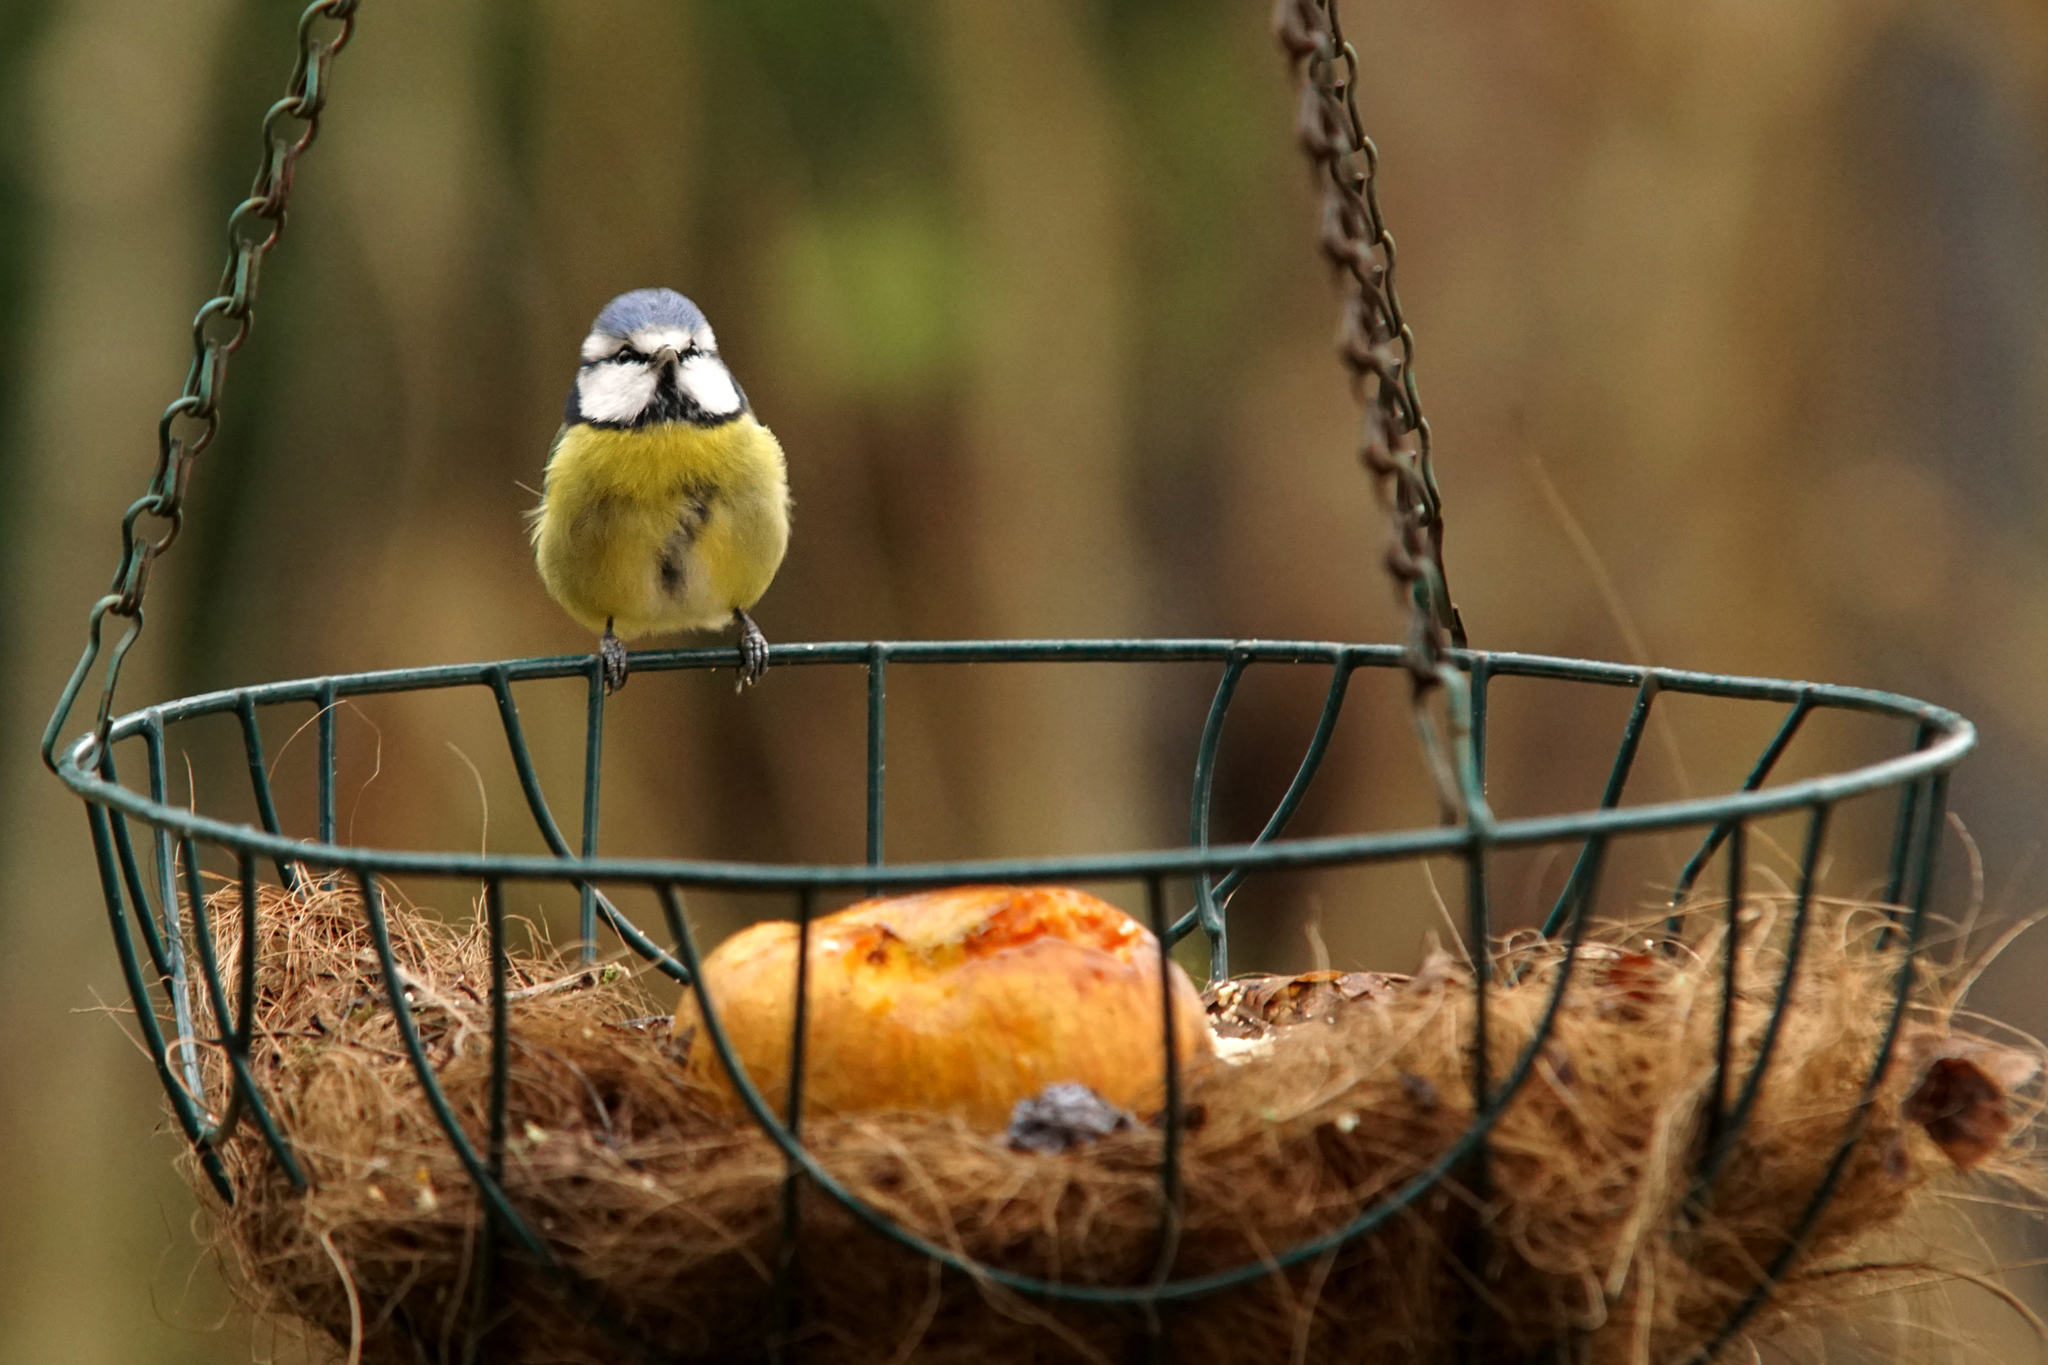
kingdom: Animalia
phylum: Chordata
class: Aves
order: Passeriformes
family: Paridae
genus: Cyanistes
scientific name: Cyanistes caeruleus
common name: Eurasian blue tit
